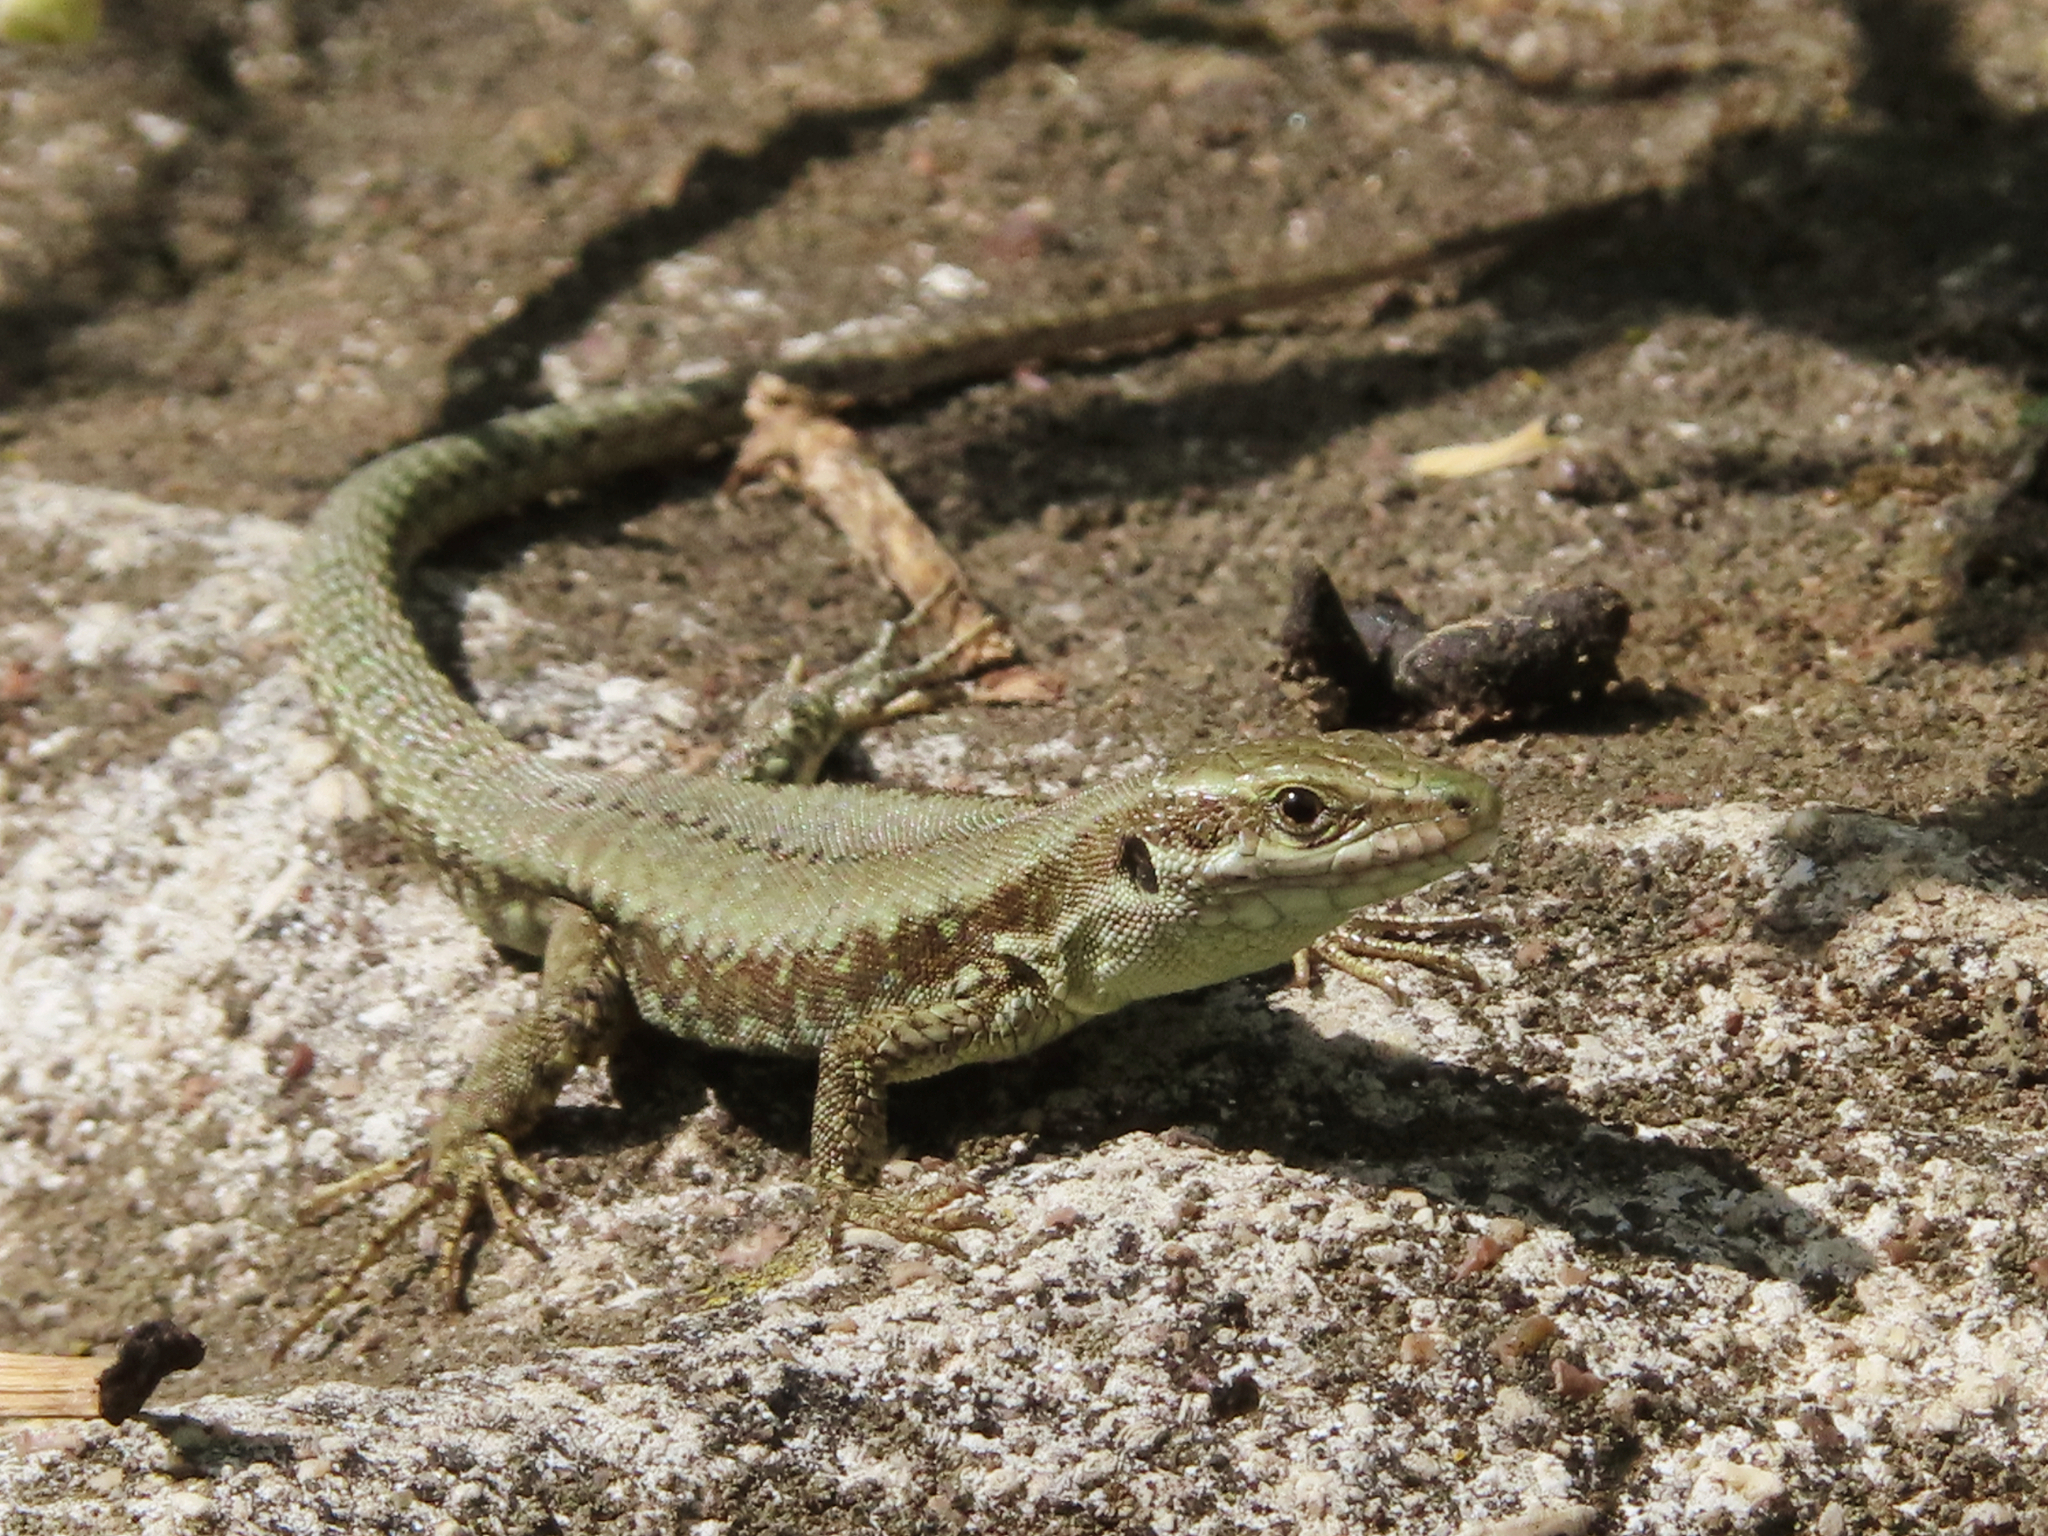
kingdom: Animalia
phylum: Chordata
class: Squamata
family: Lacertidae
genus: Podarcis
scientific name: Podarcis muralis
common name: Common wall lizard
